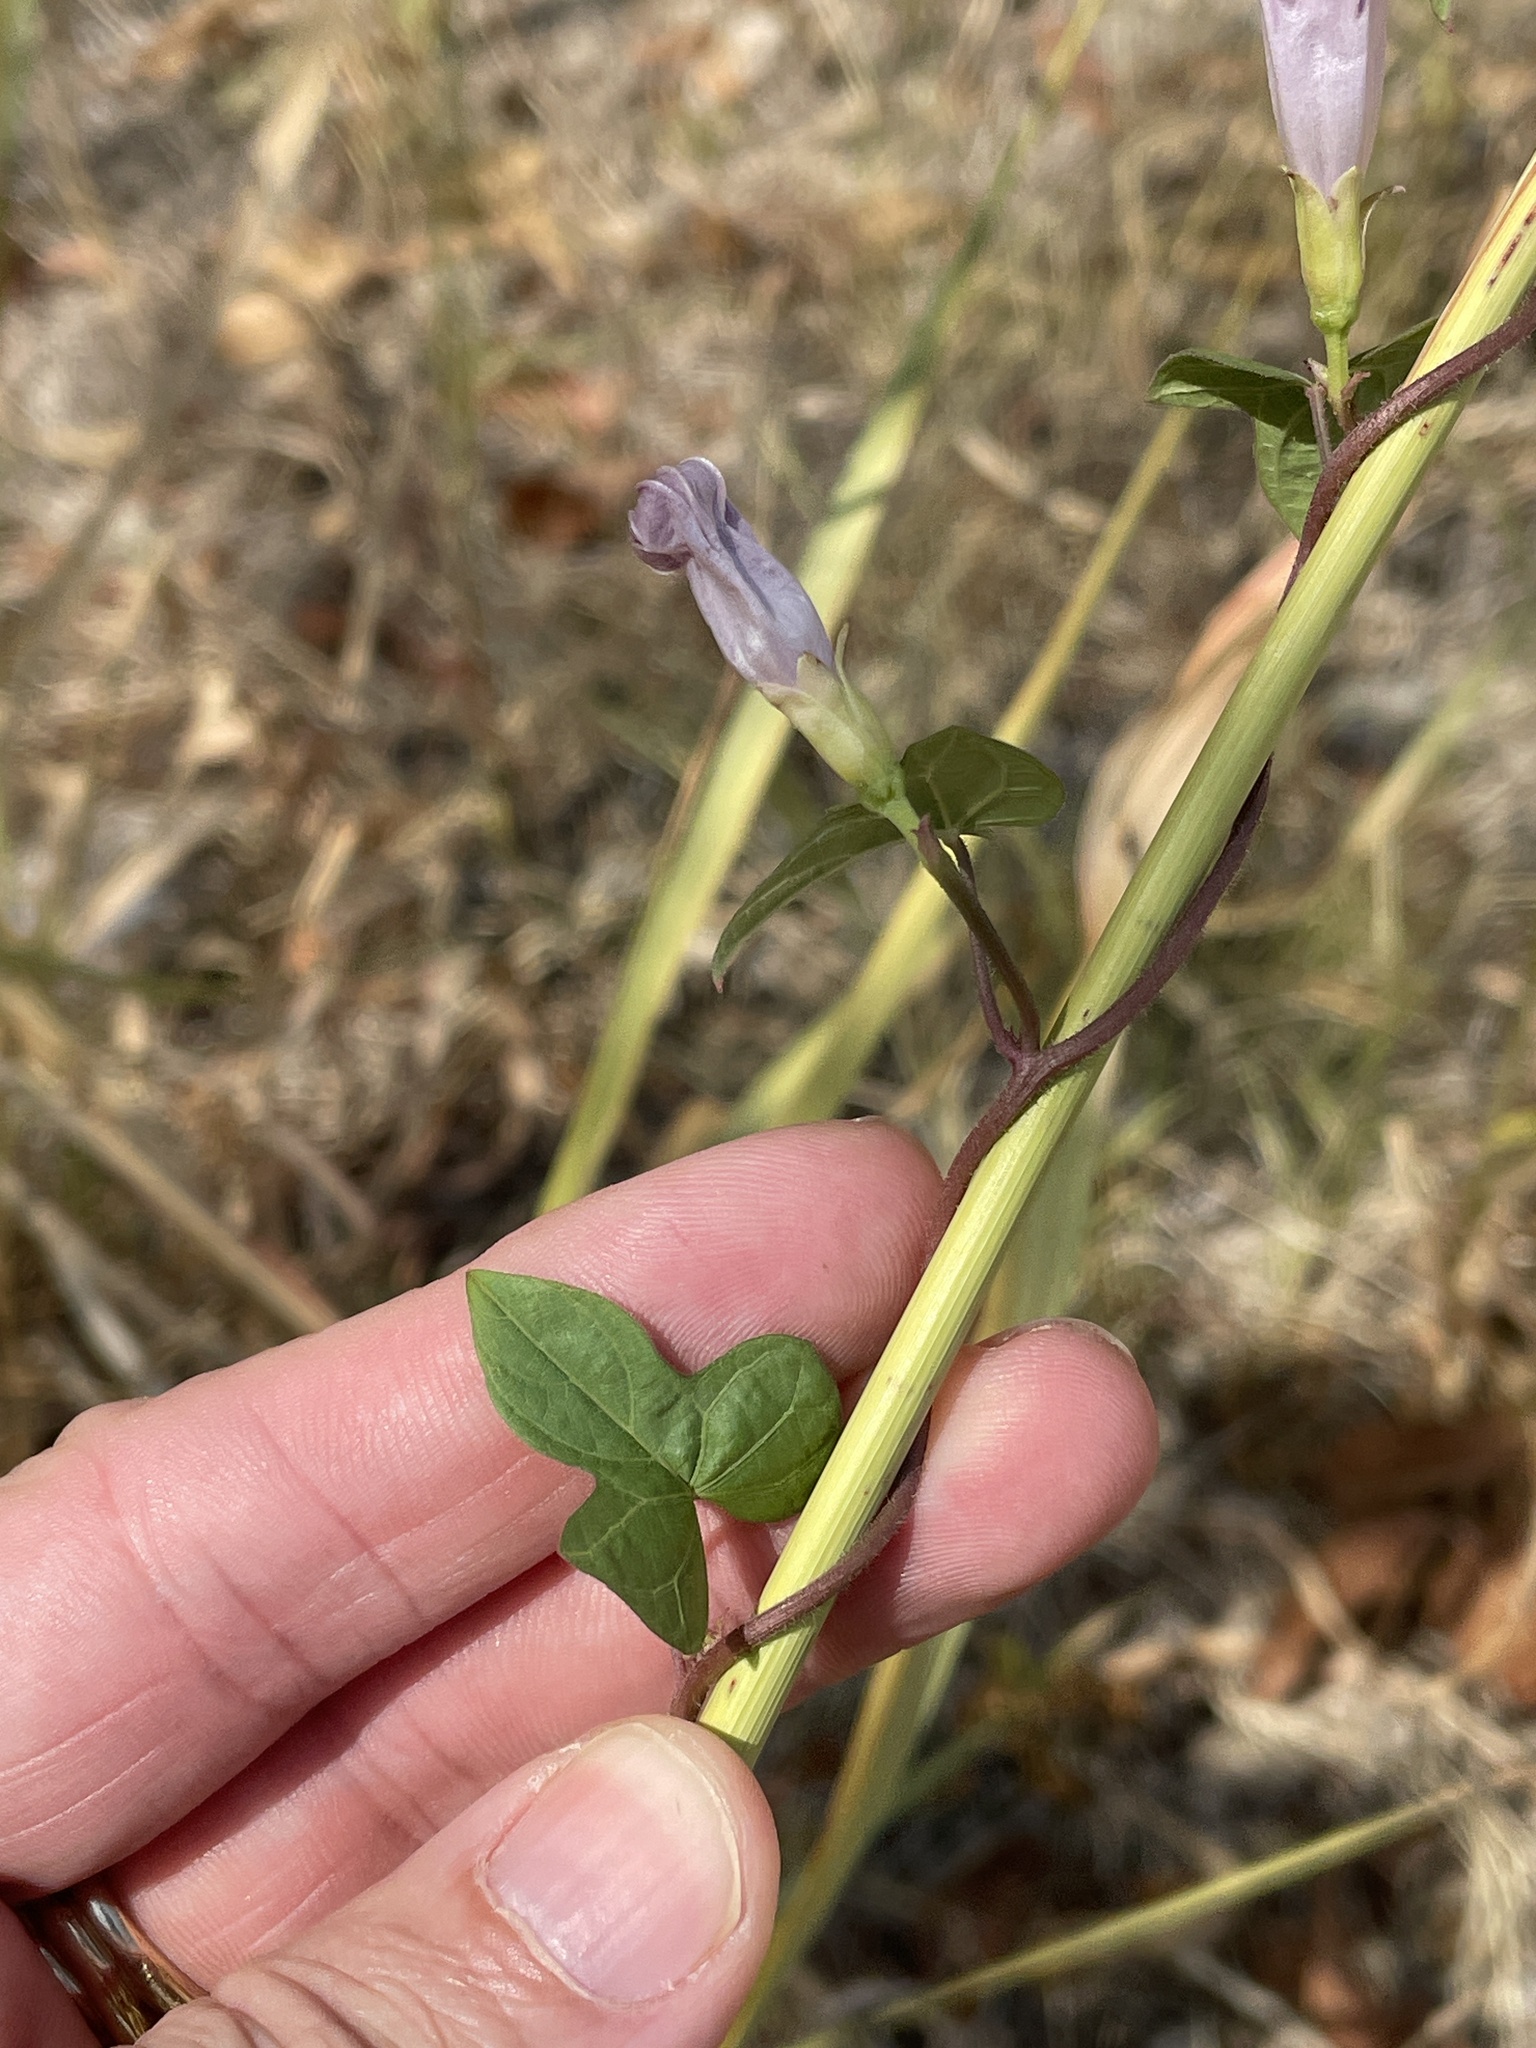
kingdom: Plantae
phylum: Tracheophyta
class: Magnoliopsida
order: Solanales
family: Convolvulaceae
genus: Ipomoea
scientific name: Ipomoea cordatotriloba
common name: Cotton morning glory
